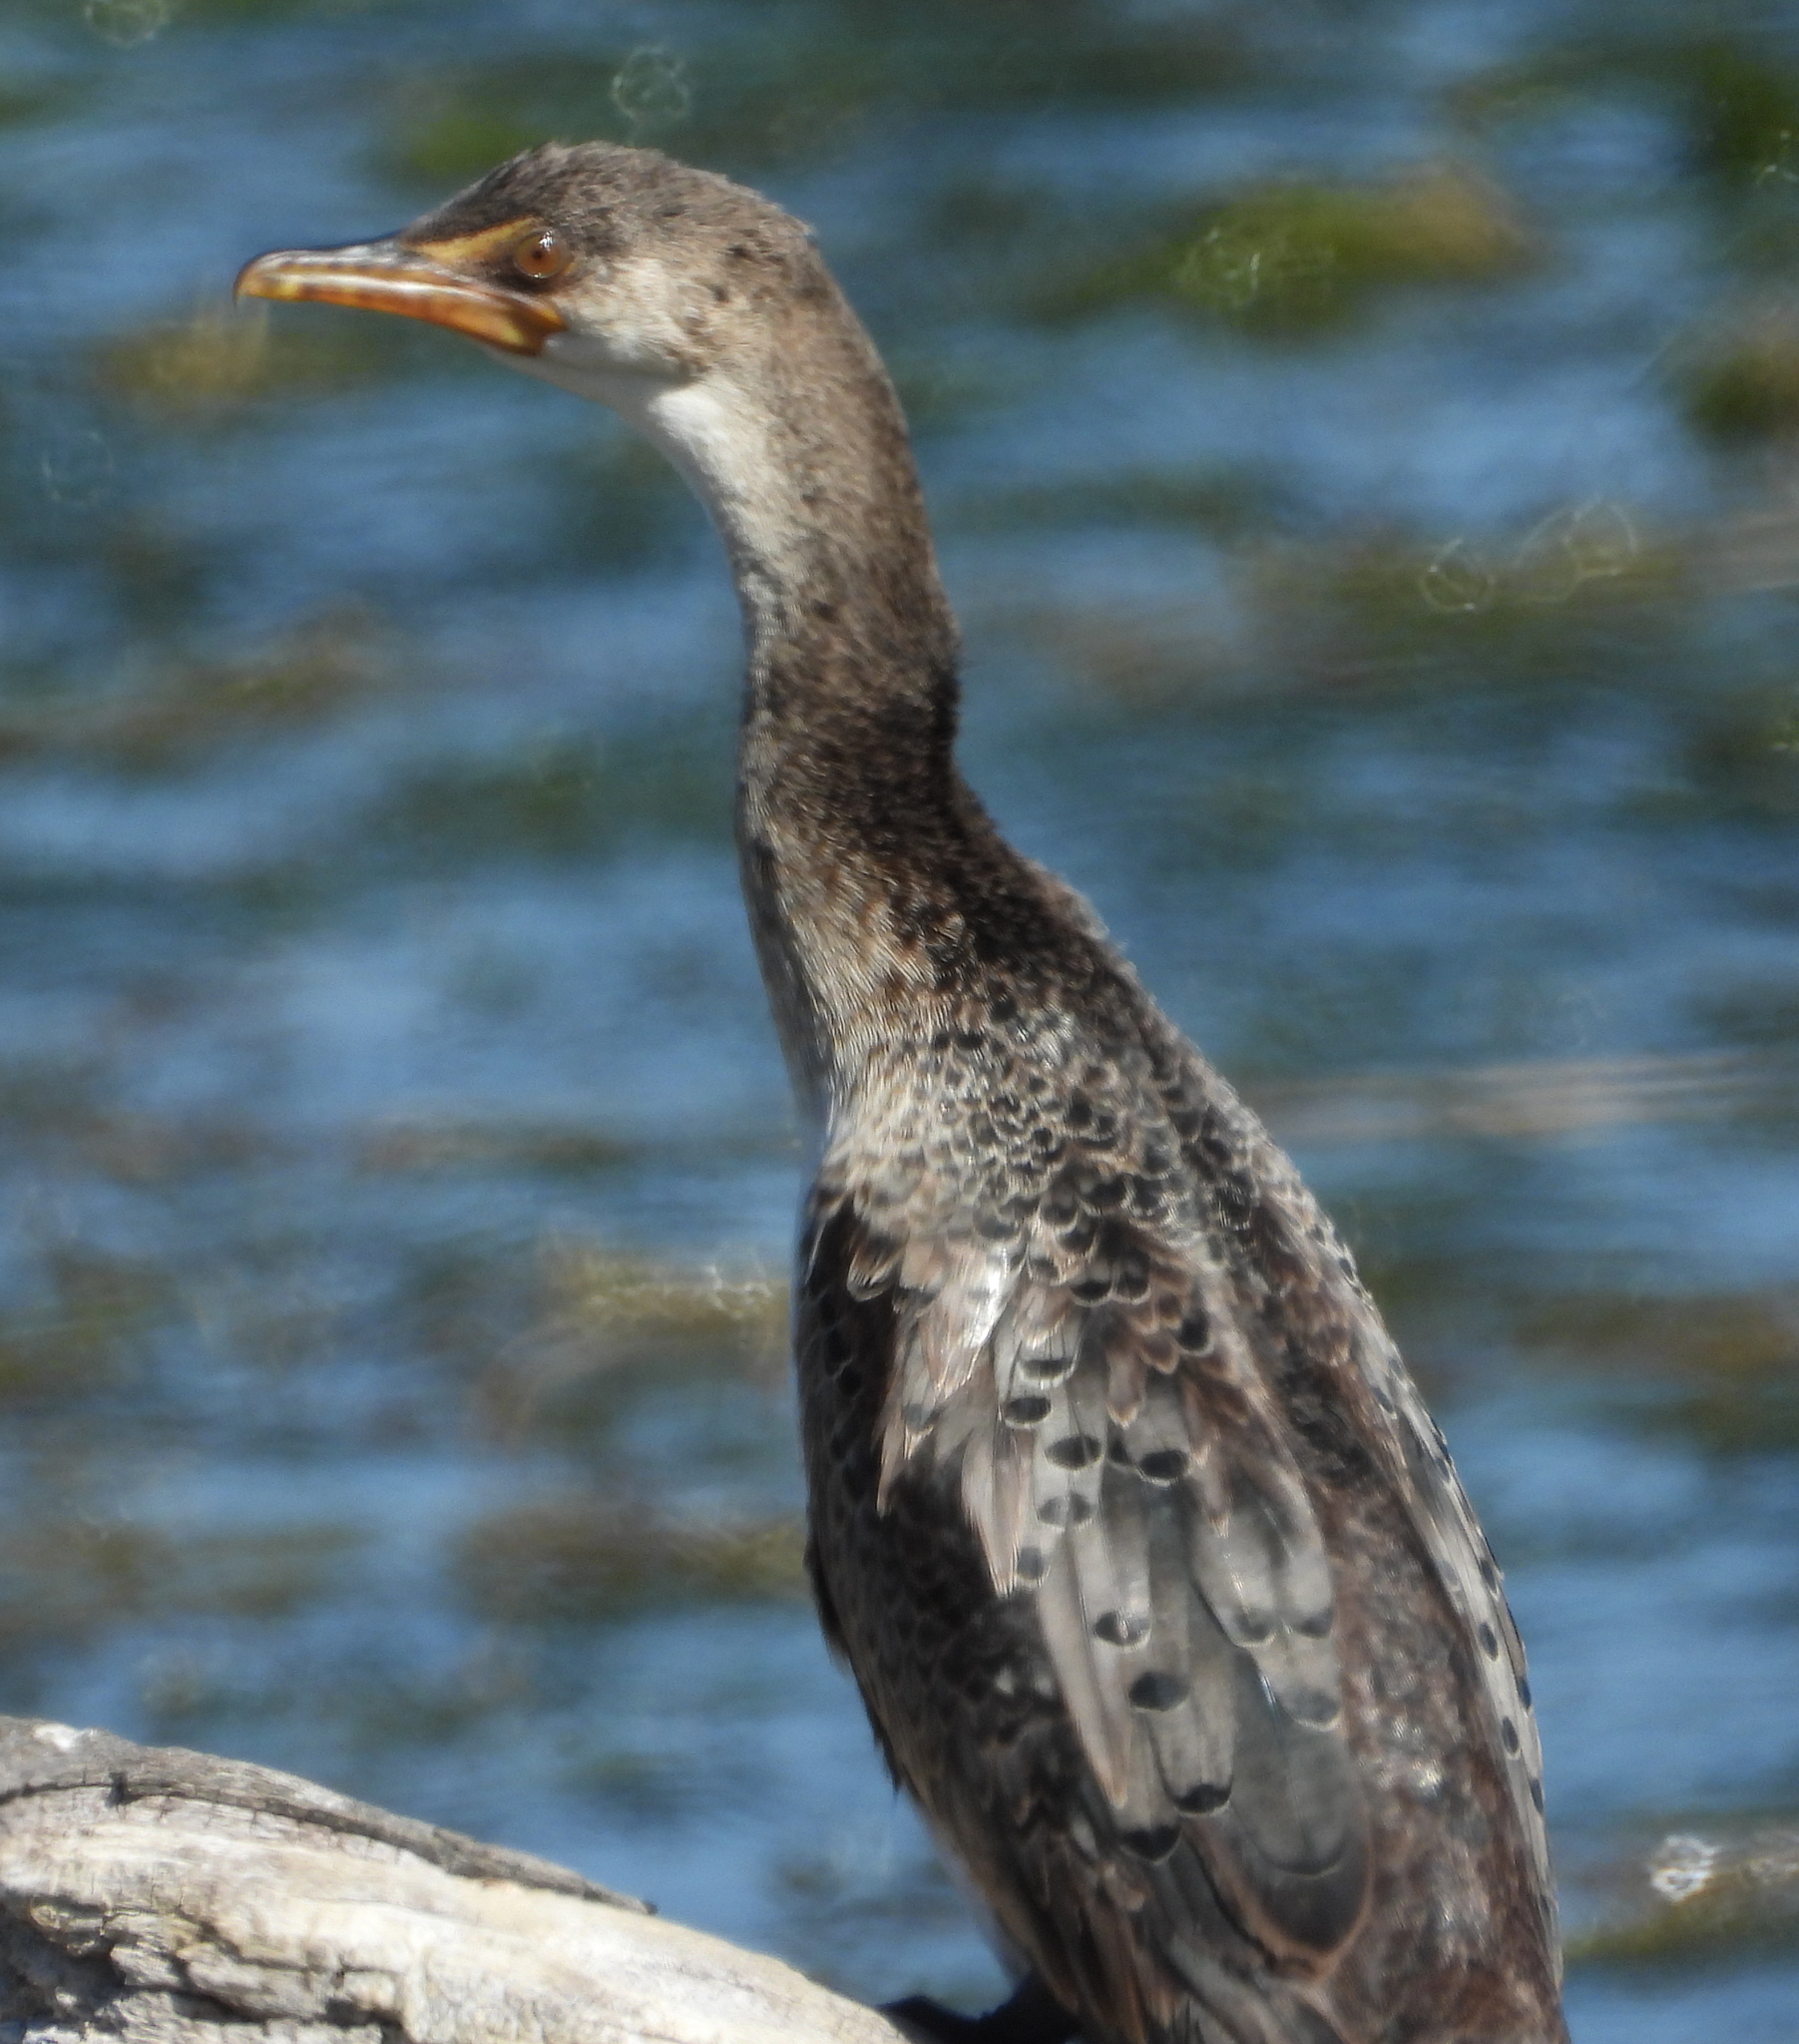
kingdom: Animalia
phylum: Chordata
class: Aves
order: Suliformes
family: Phalacrocoracidae
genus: Microcarbo
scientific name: Microcarbo africanus
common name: Long-tailed cormorant
